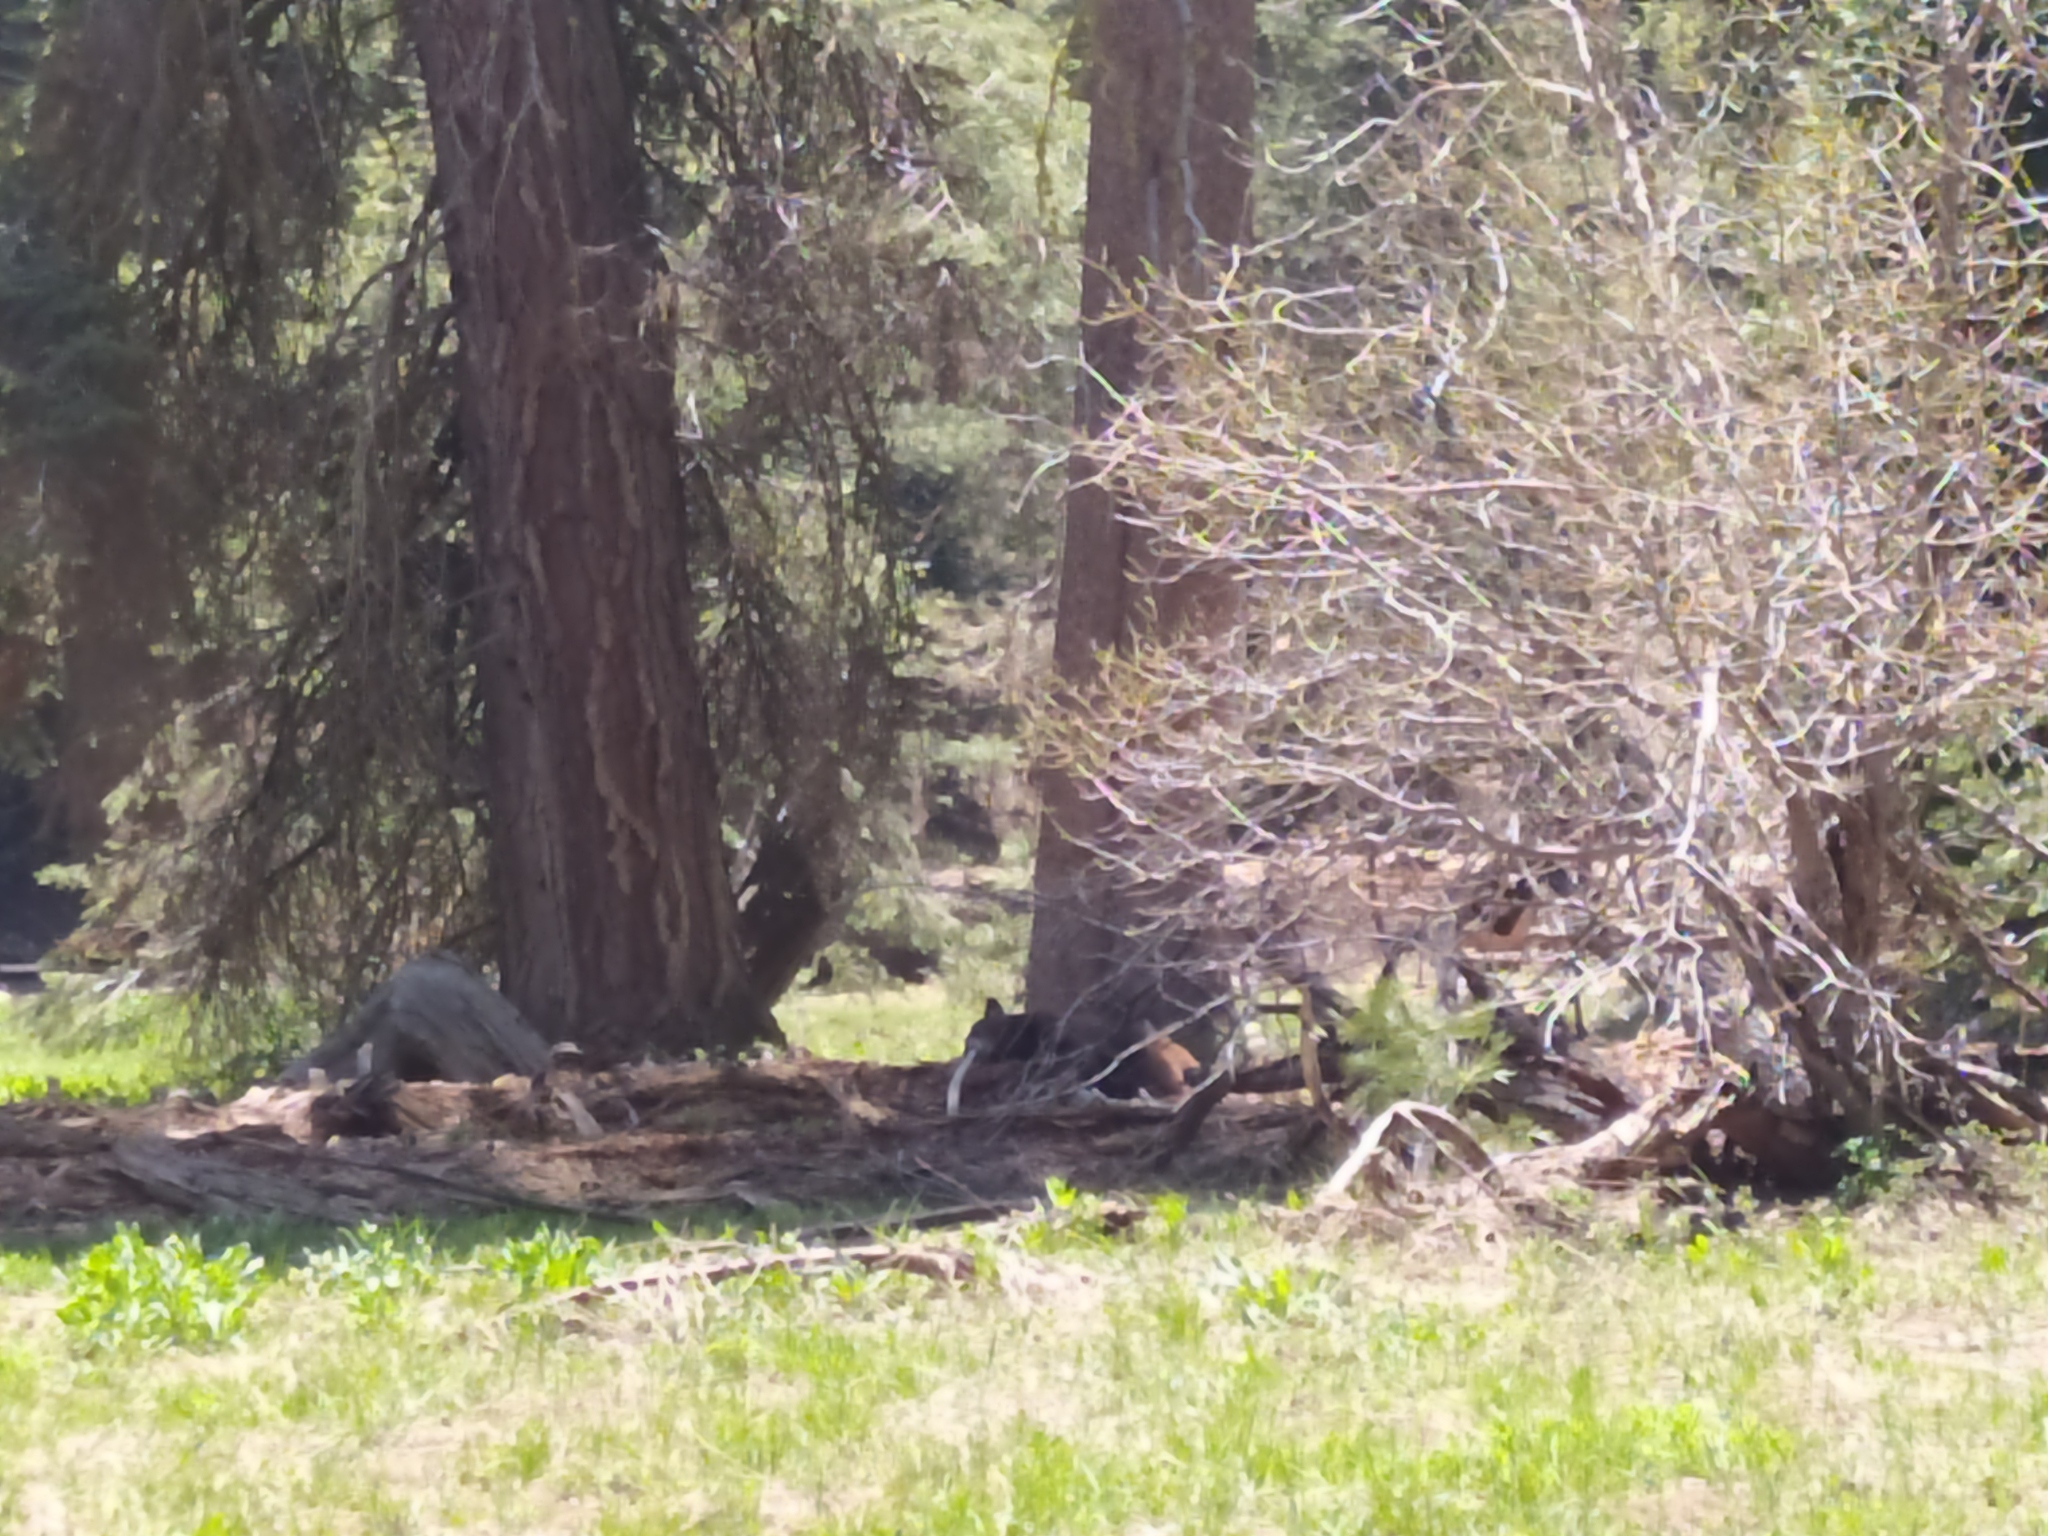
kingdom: Animalia
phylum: Chordata
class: Mammalia
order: Carnivora
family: Ursidae
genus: Ursus
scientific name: Ursus americanus
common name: American black bear
